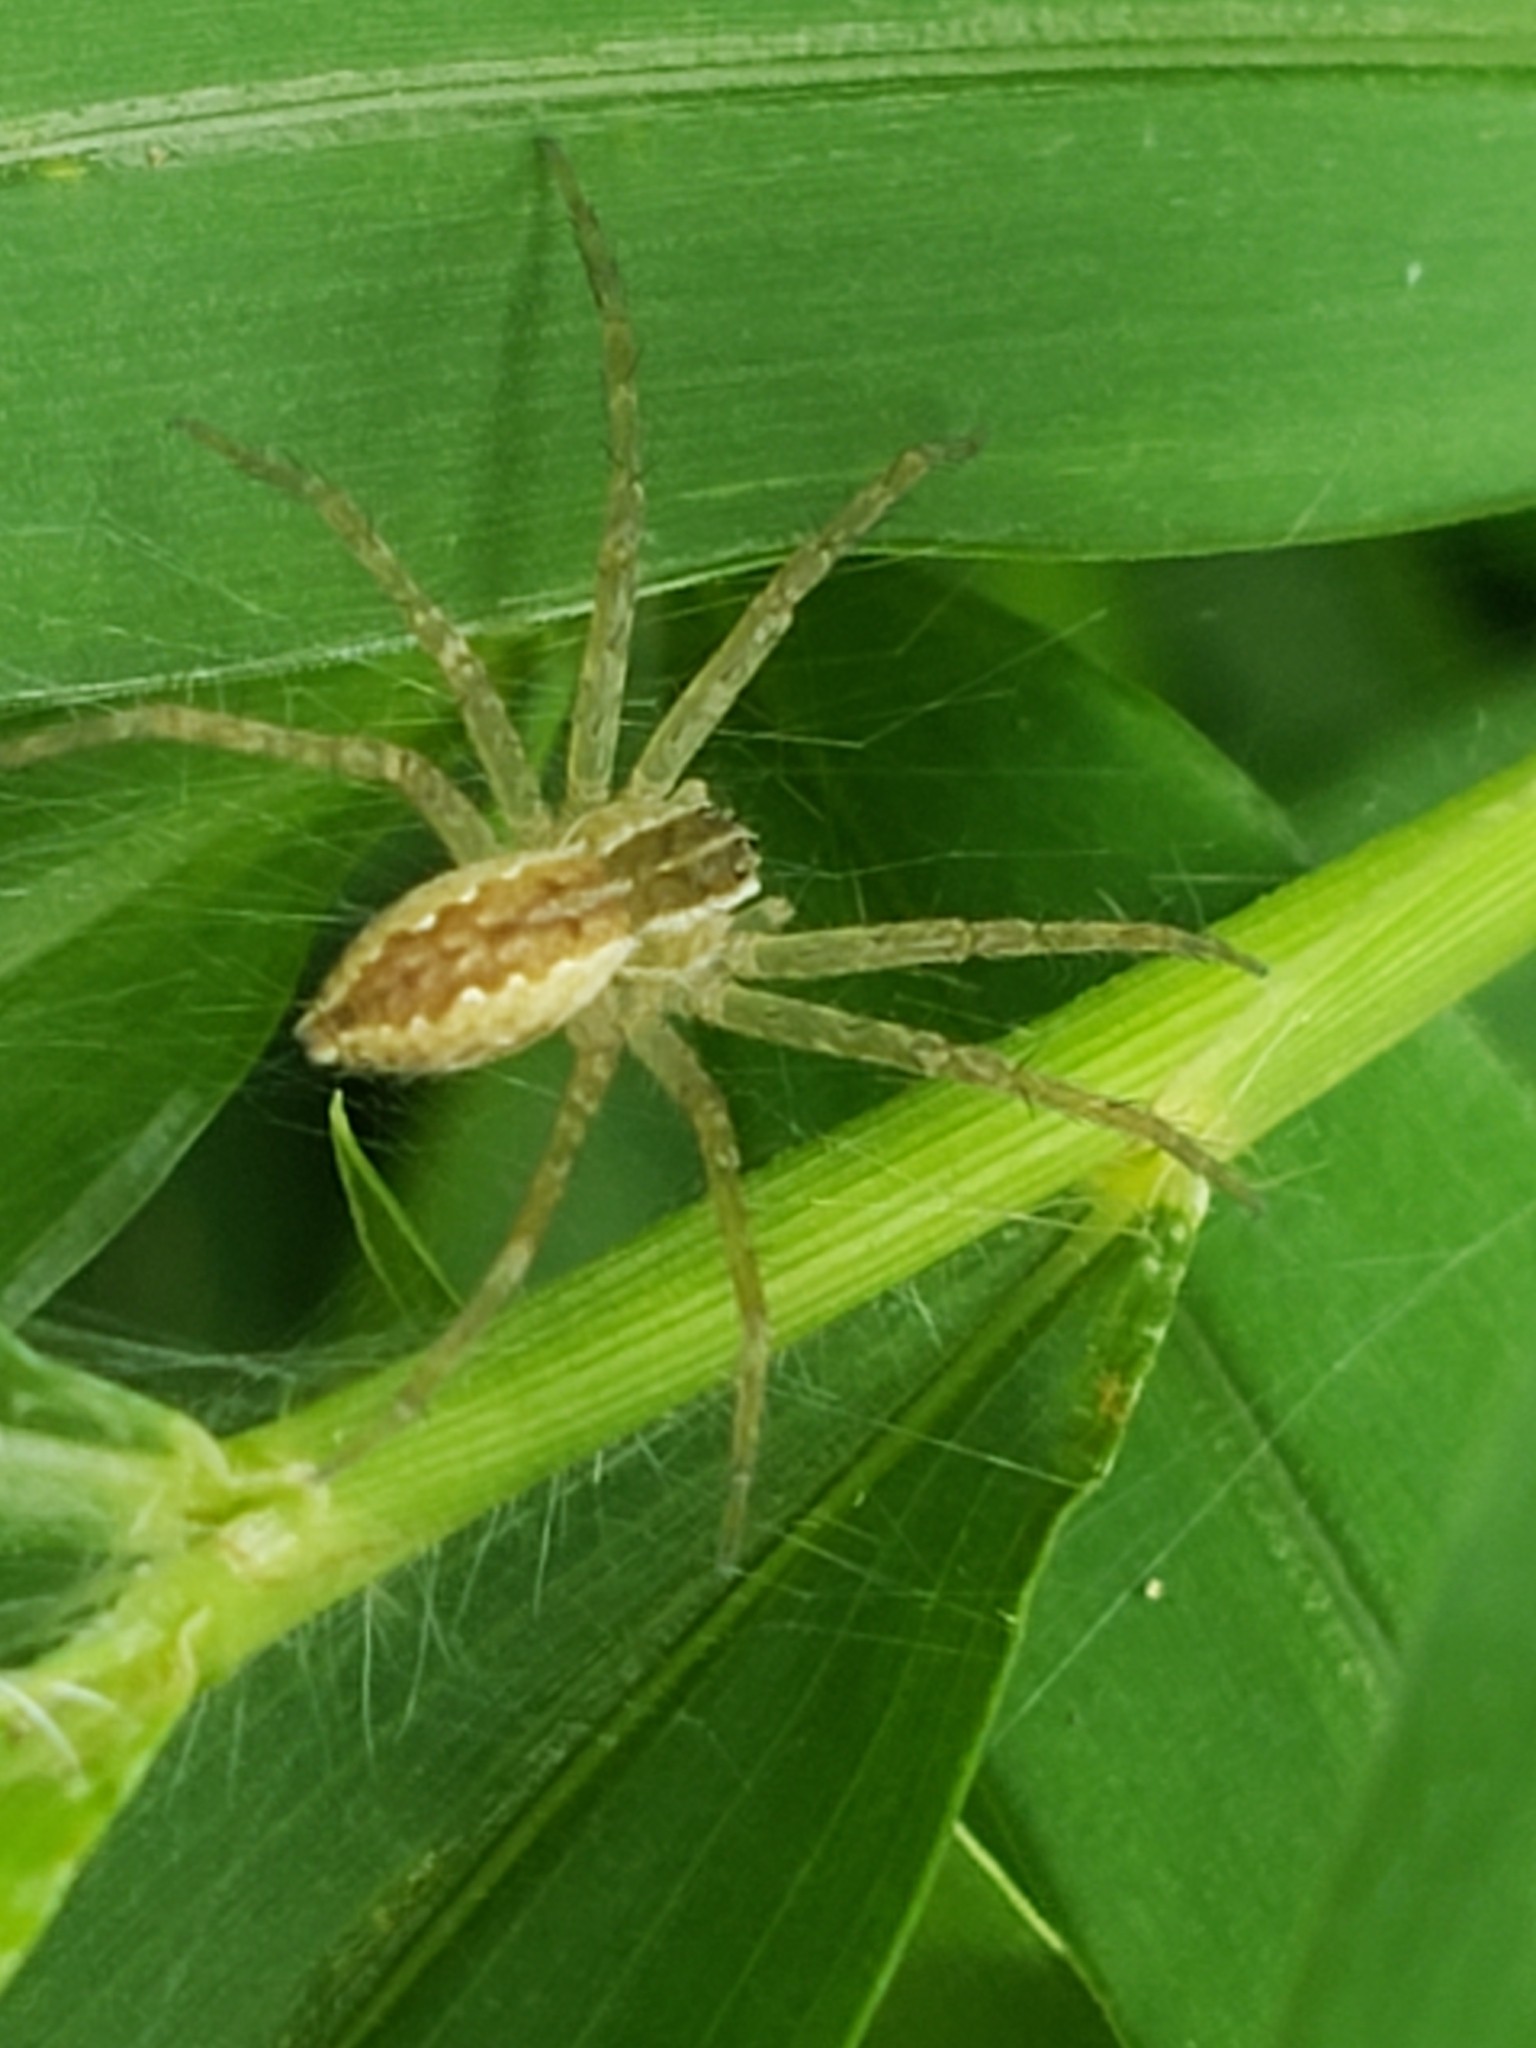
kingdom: Animalia
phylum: Arthropoda
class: Arachnida
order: Araneae
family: Pisauridae
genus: Pisaurina
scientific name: Pisaurina mira
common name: American nursery web spider
